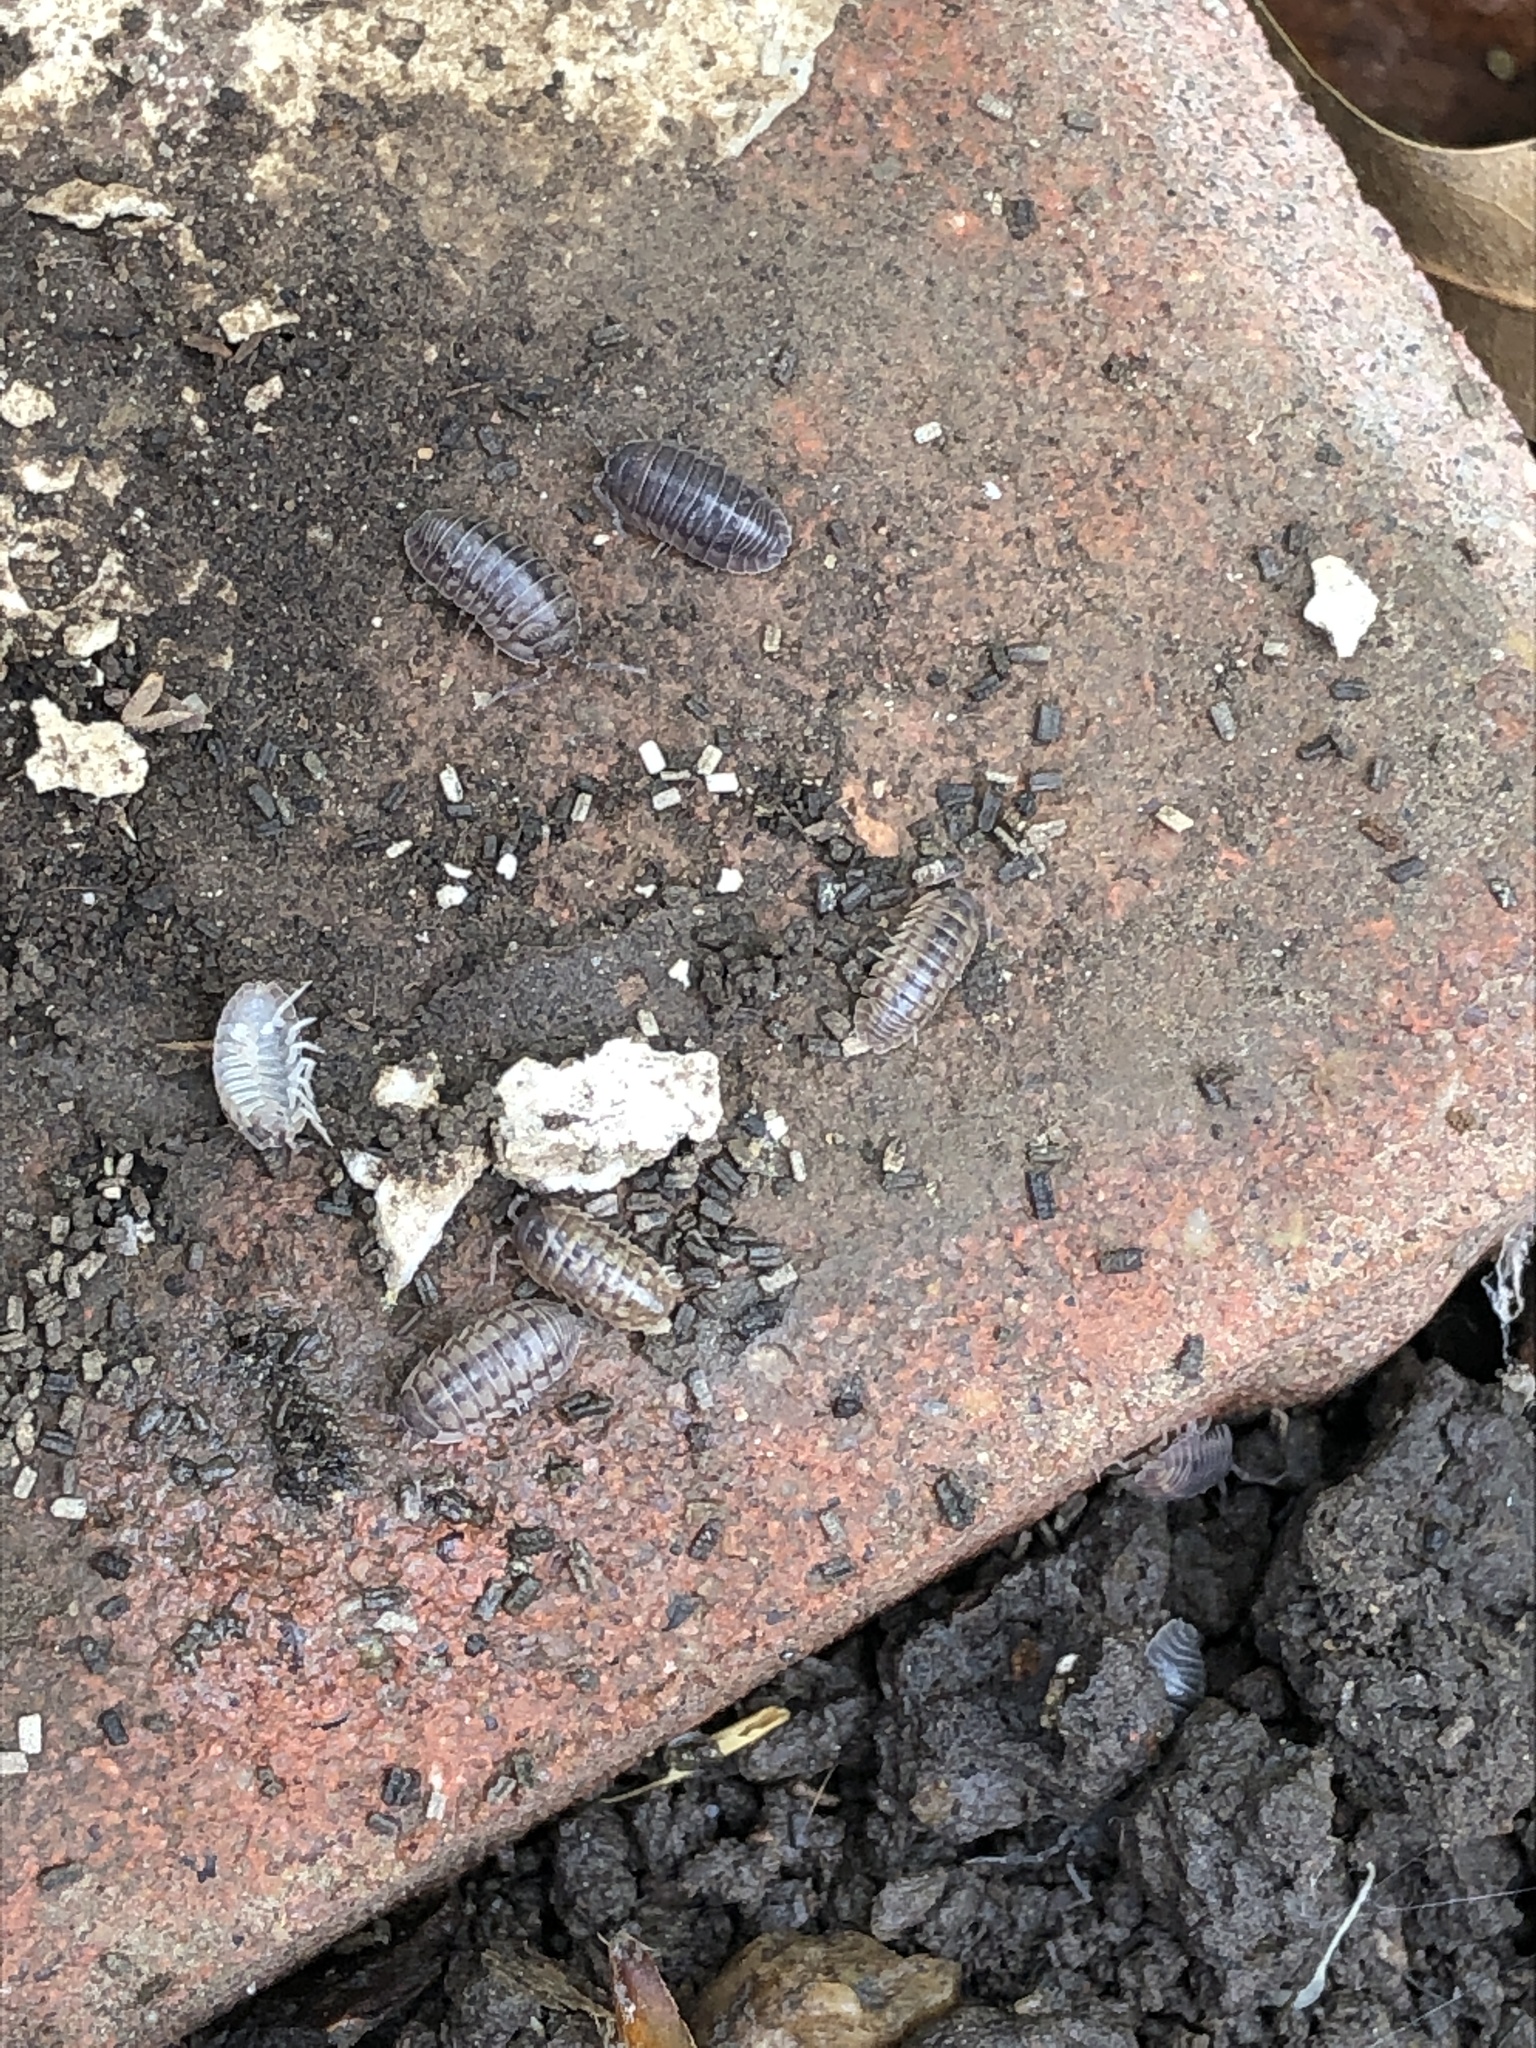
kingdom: Animalia
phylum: Arthropoda
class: Malacostraca
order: Isopoda
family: Armadillidiidae
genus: Armadillidium
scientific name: Armadillidium nasatum
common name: Isopod
